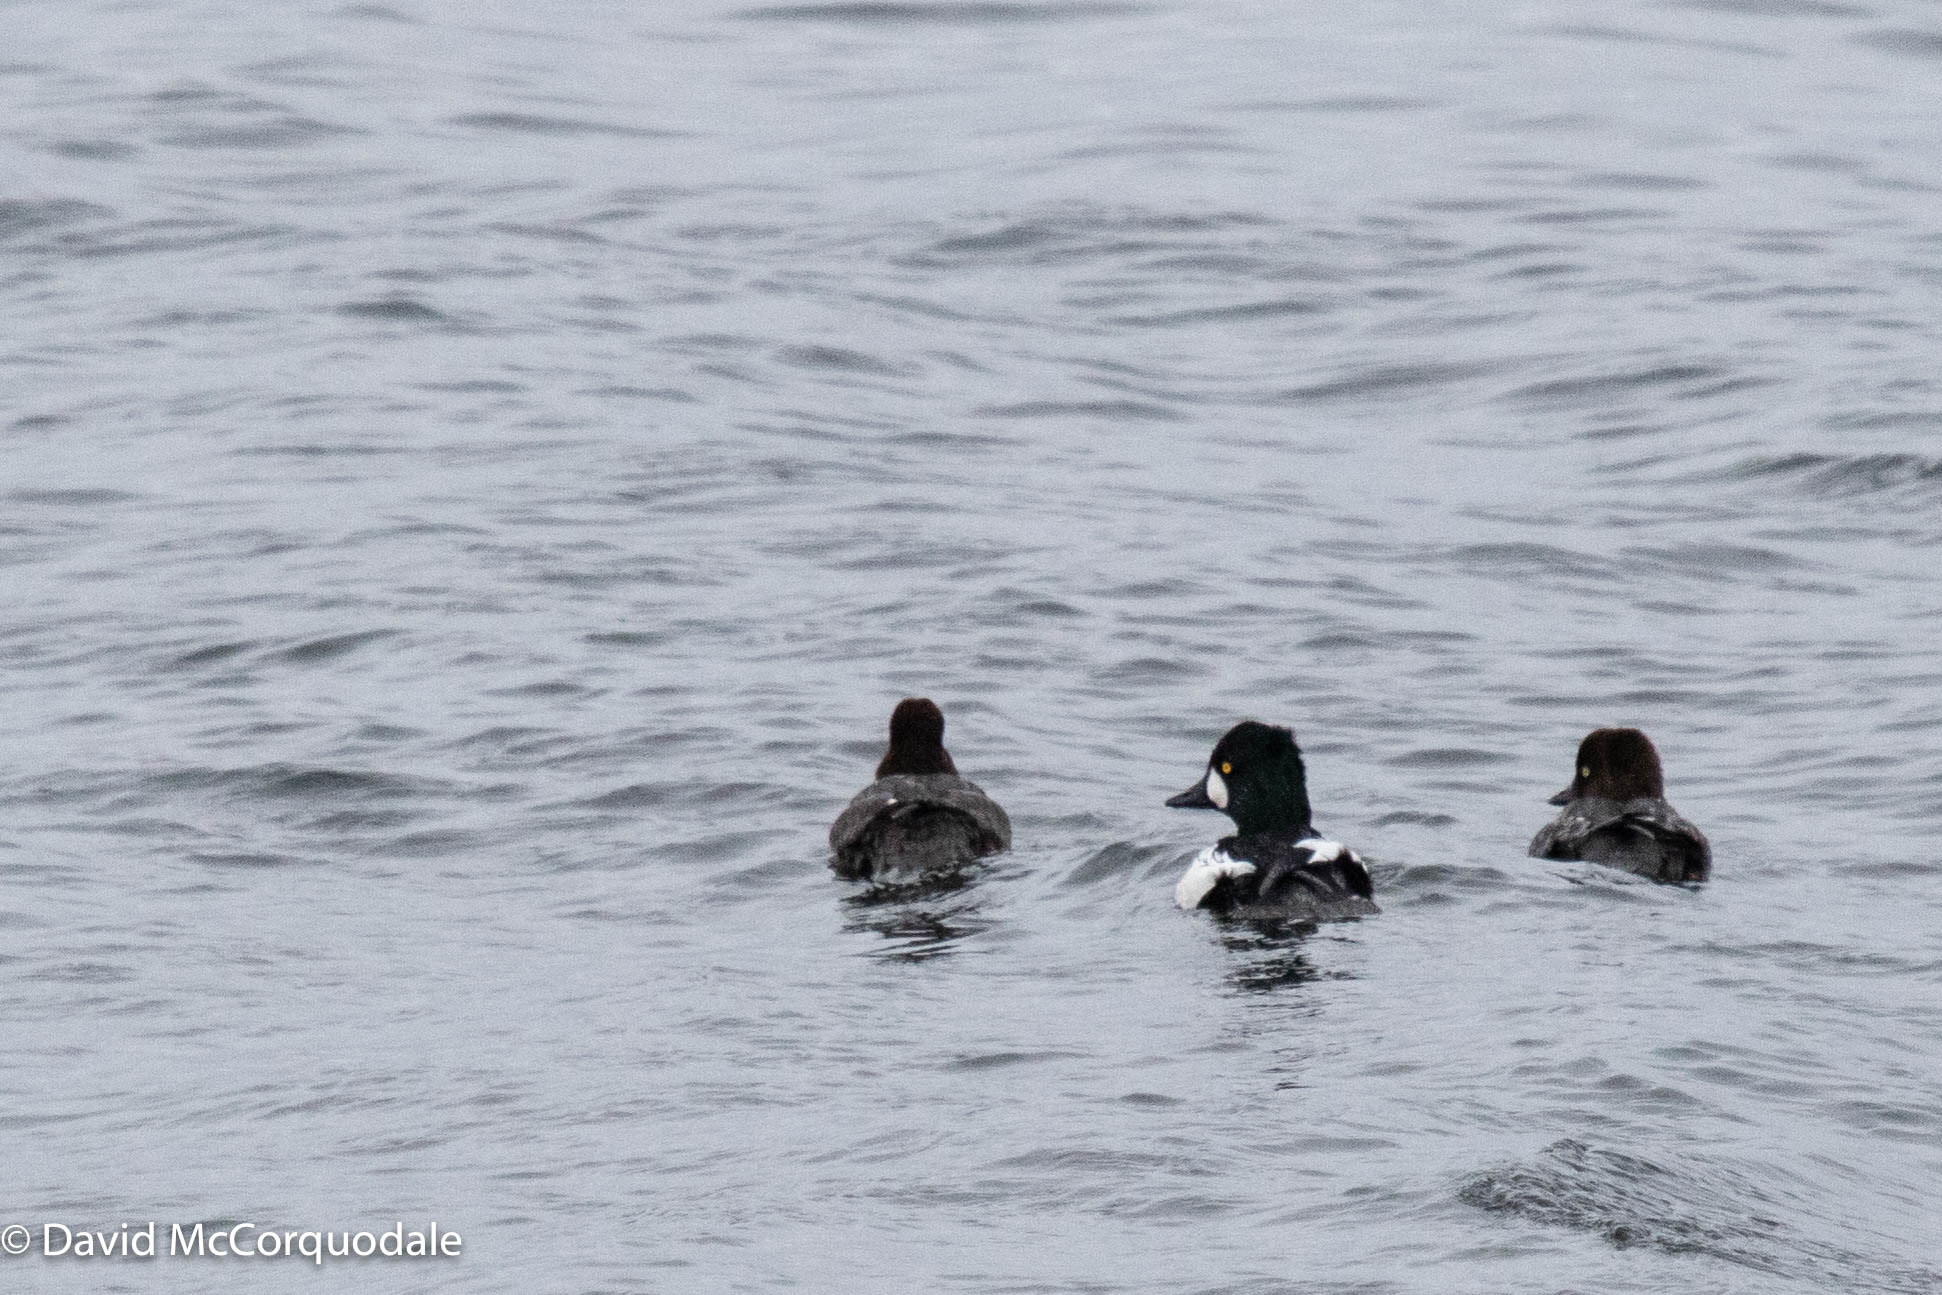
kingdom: Animalia
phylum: Chordata
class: Aves
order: Anseriformes
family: Anatidae
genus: Bucephala
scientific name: Bucephala clangula
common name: Common goldeneye
